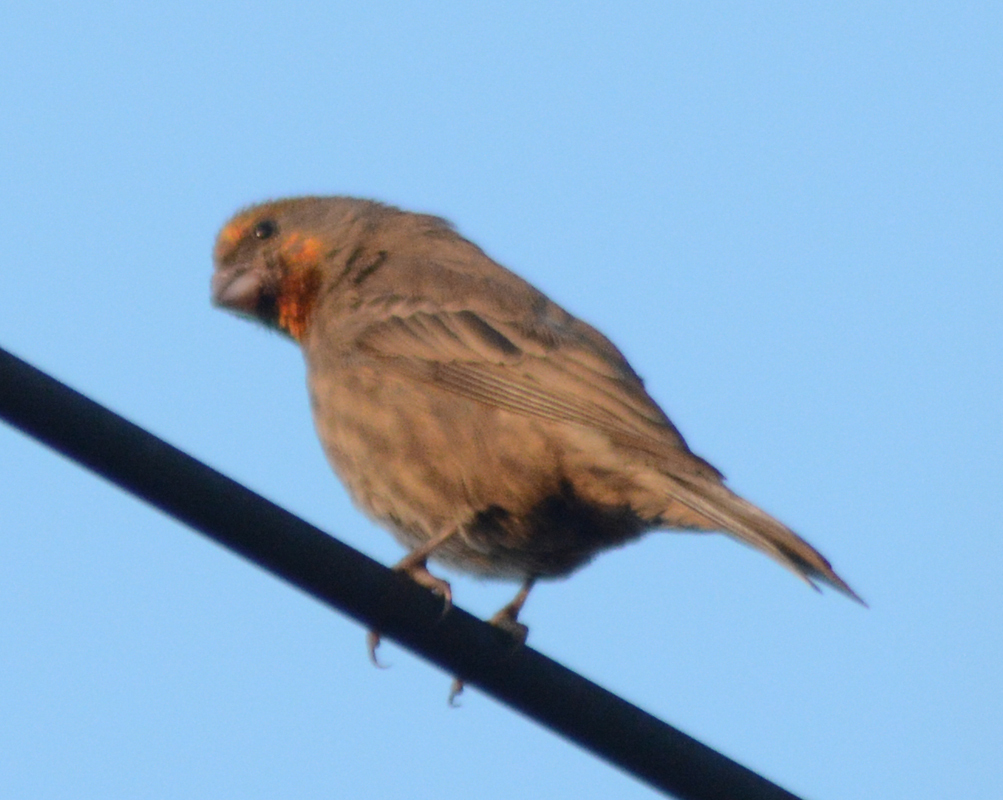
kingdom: Animalia
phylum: Chordata
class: Aves
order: Passeriformes
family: Fringillidae
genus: Haemorhous
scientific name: Haemorhous mexicanus
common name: House finch
